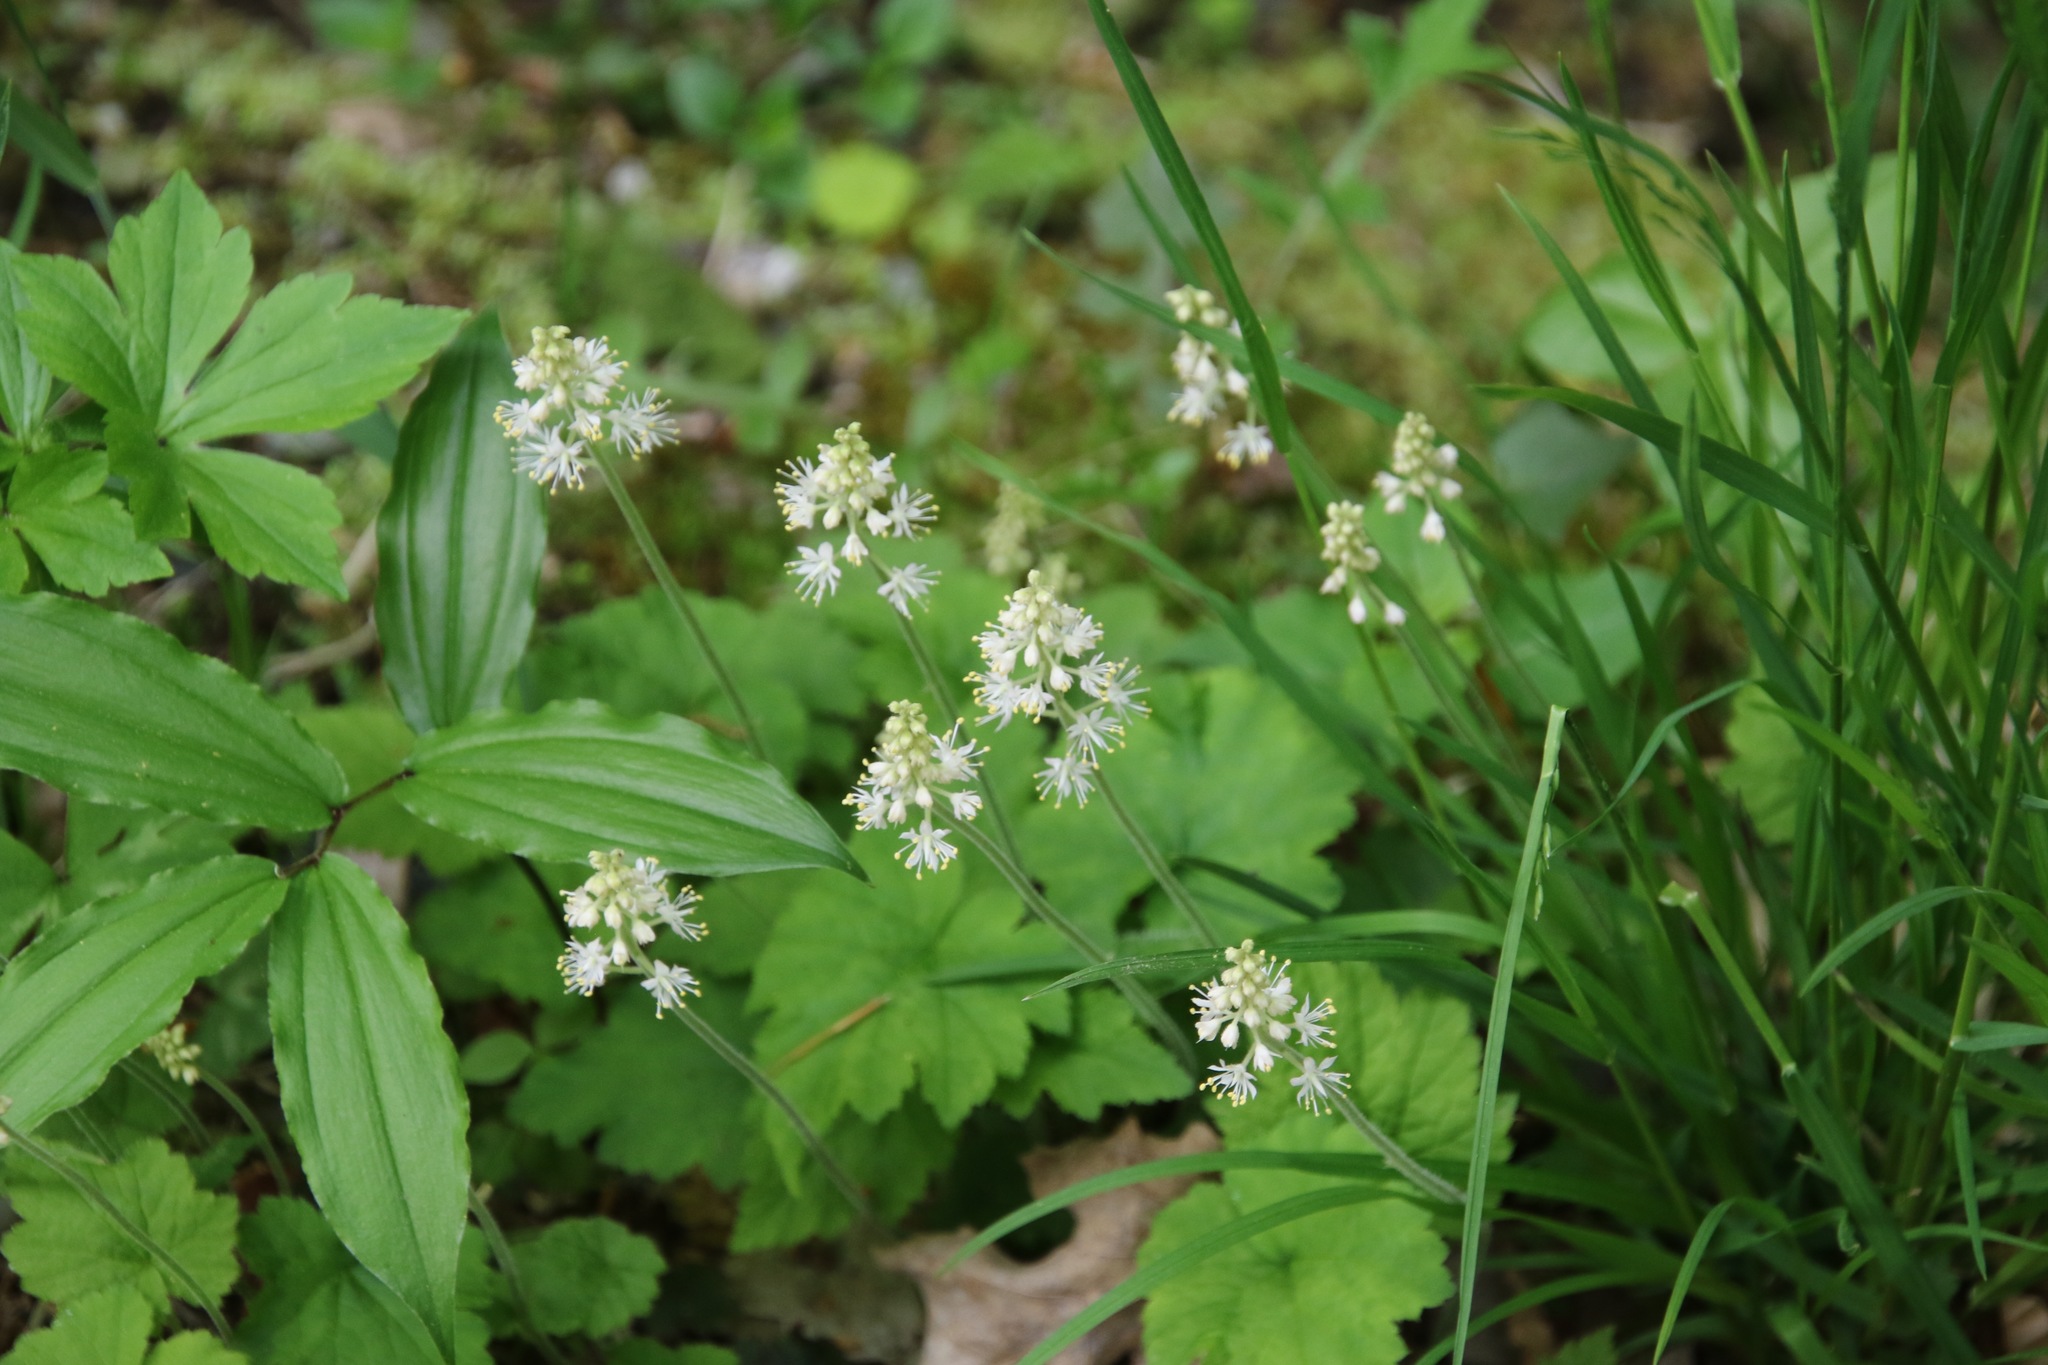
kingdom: Plantae
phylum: Tracheophyta
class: Magnoliopsida
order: Saxifragales
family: Saxifragaceae
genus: Tiarella
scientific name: Tiarella stolonifera
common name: Stoloniferous foamflower
